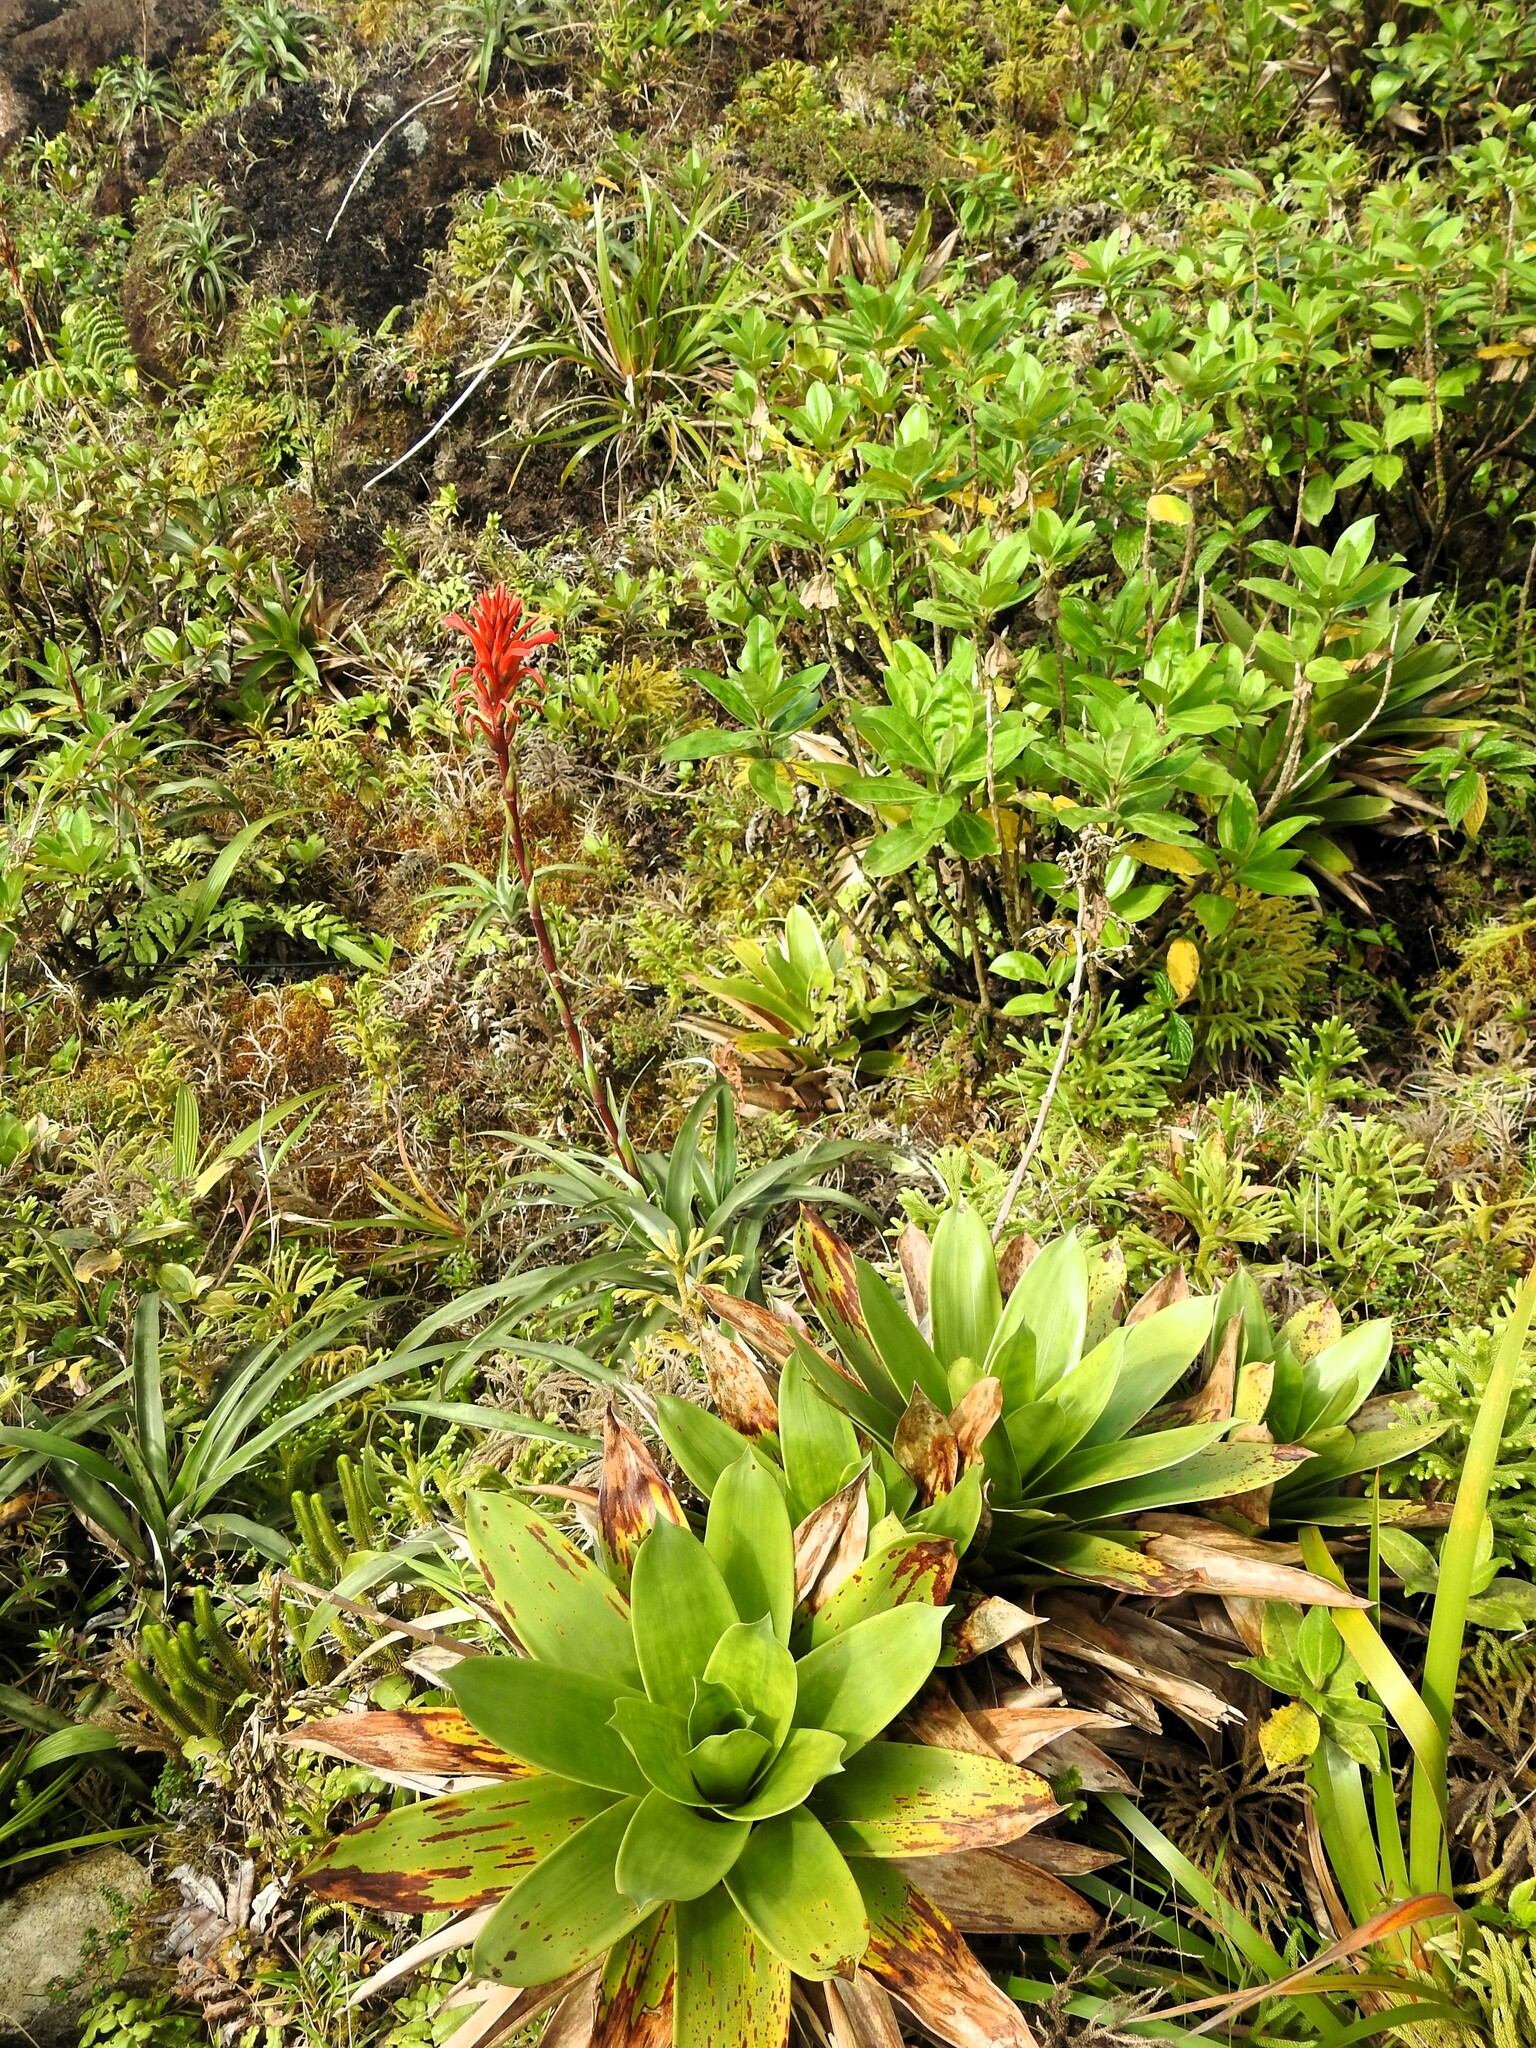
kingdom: Plantae
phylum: Tracheophyta
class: Liliopsida
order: Poales
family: Bromeliaceae
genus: Pitcairnia
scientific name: Pitcairnia bifrons
